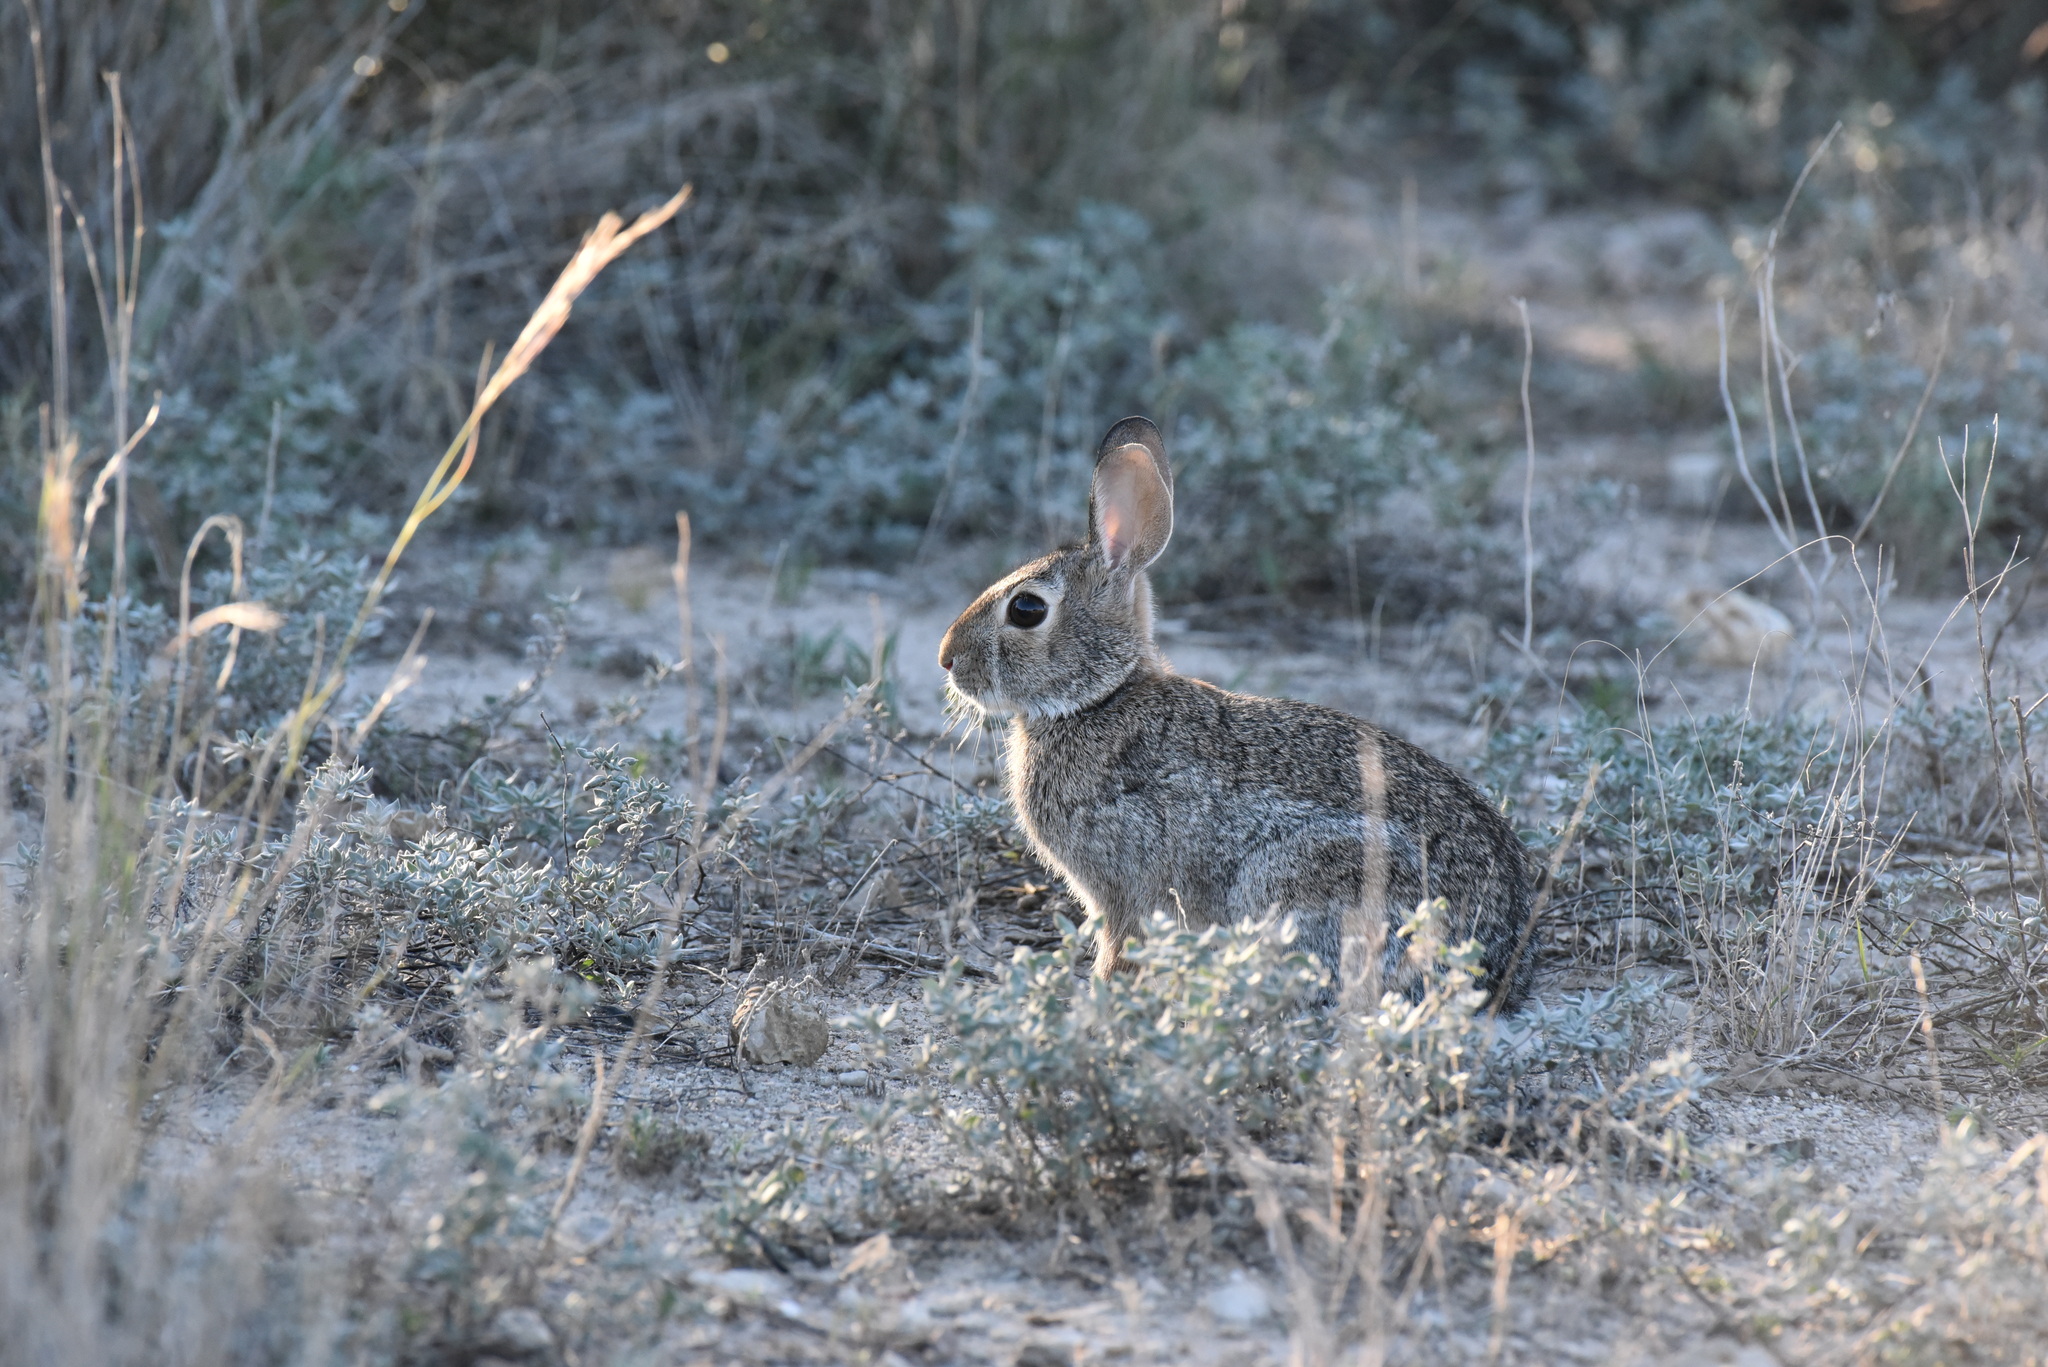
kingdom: Animalia
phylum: Chordata
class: Mammalia
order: Lagomorpha
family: Leporidae
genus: Sylvilagus
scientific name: Sylvilagus audubonii
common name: Desert cottontail
